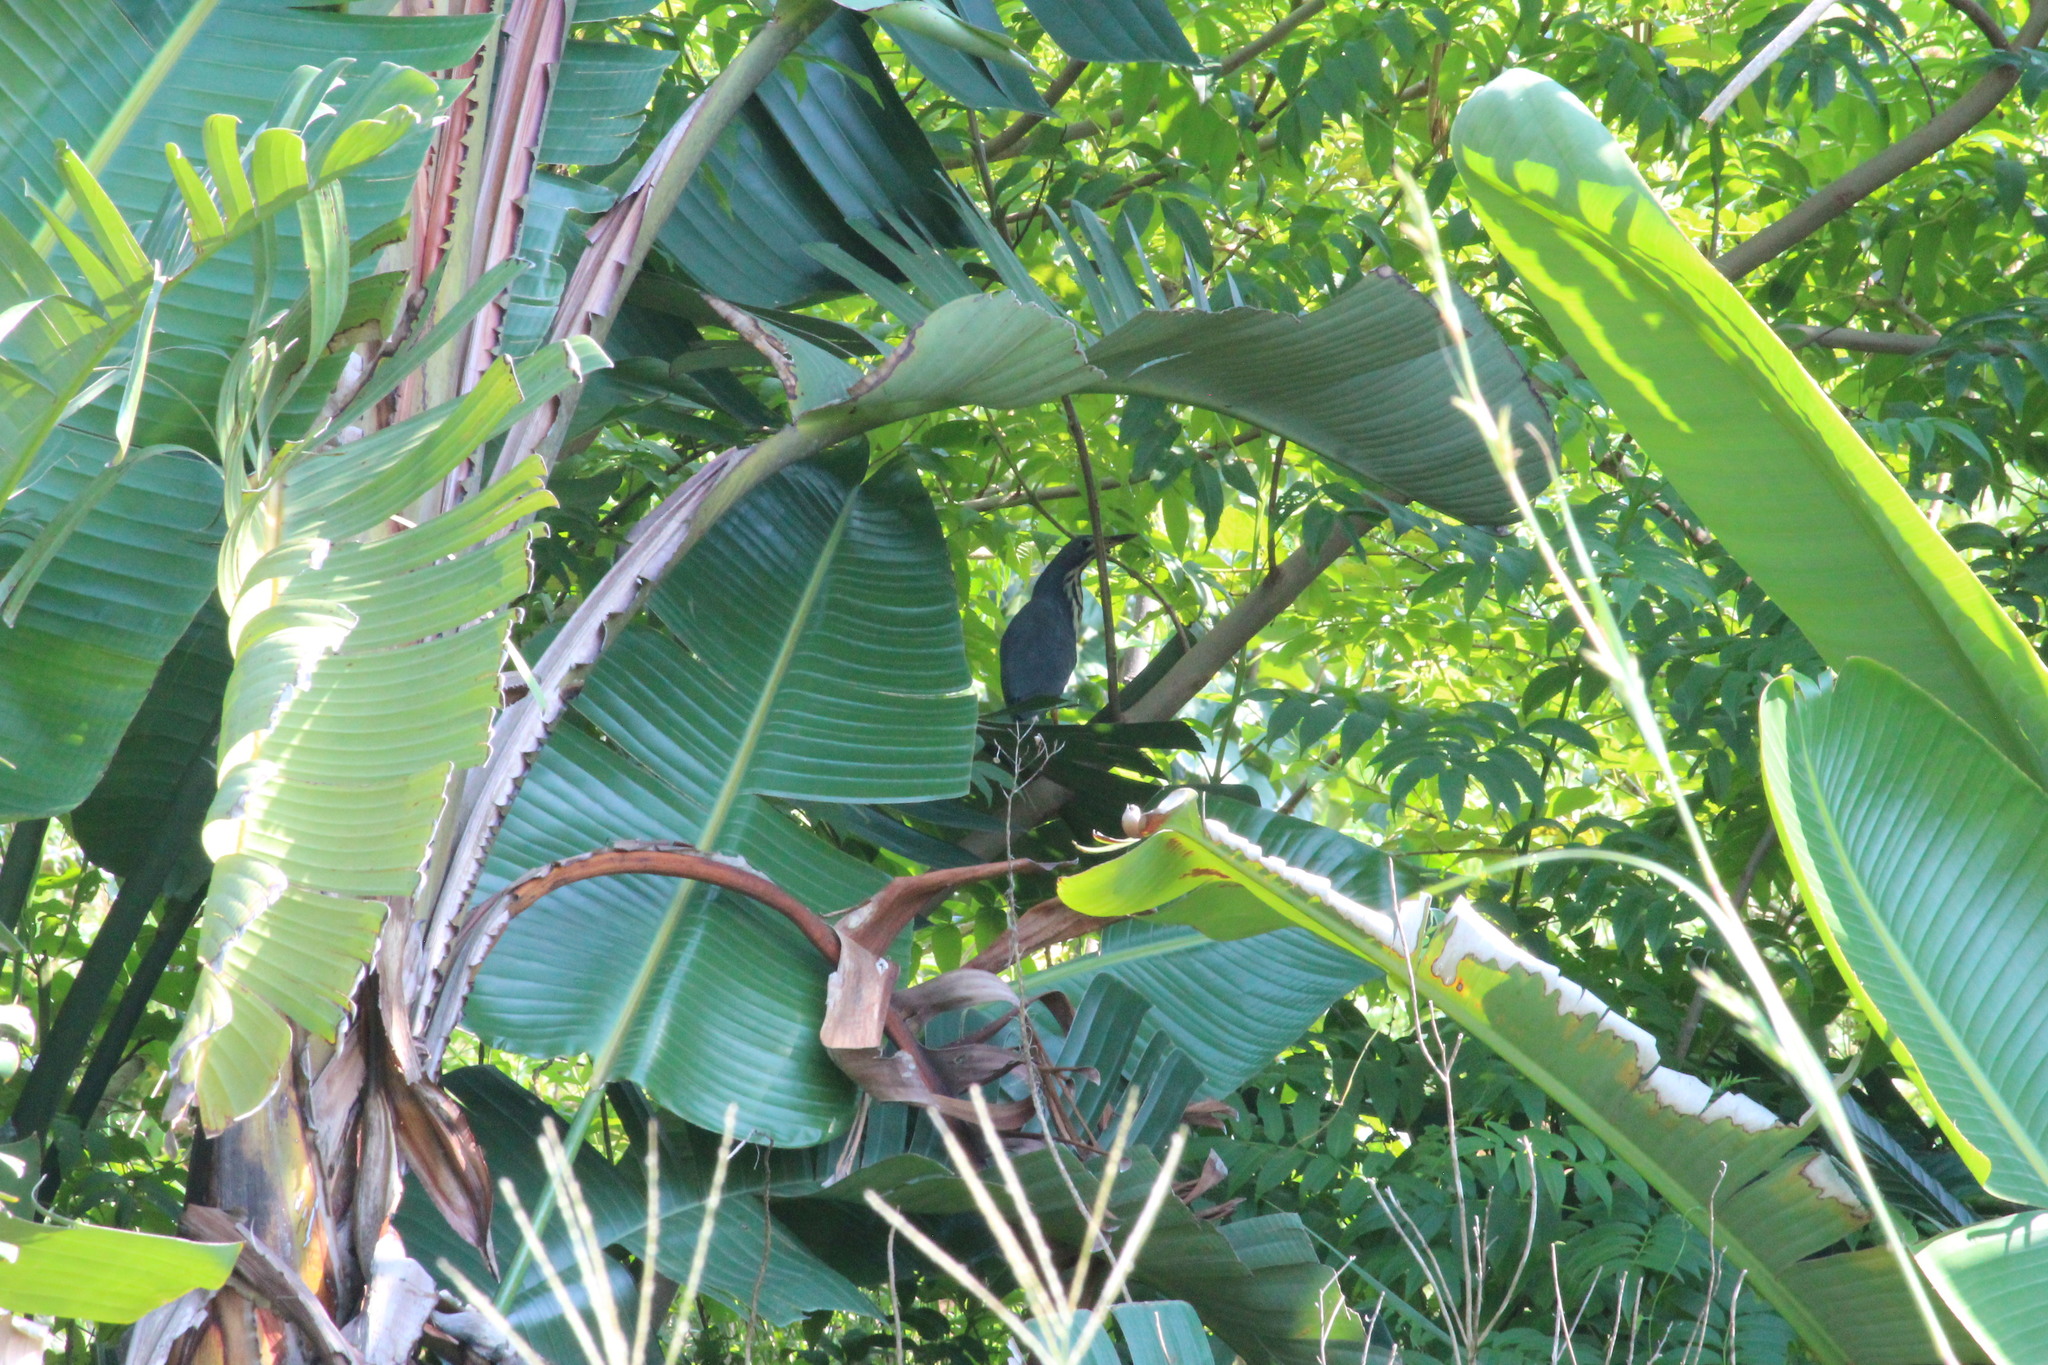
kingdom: Animalia
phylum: Chordata
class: Aves
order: Pelecaniformes
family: Ardeidae
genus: Ixobrychus
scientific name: Ixobrychus sturmii
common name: Dwarf bittern
